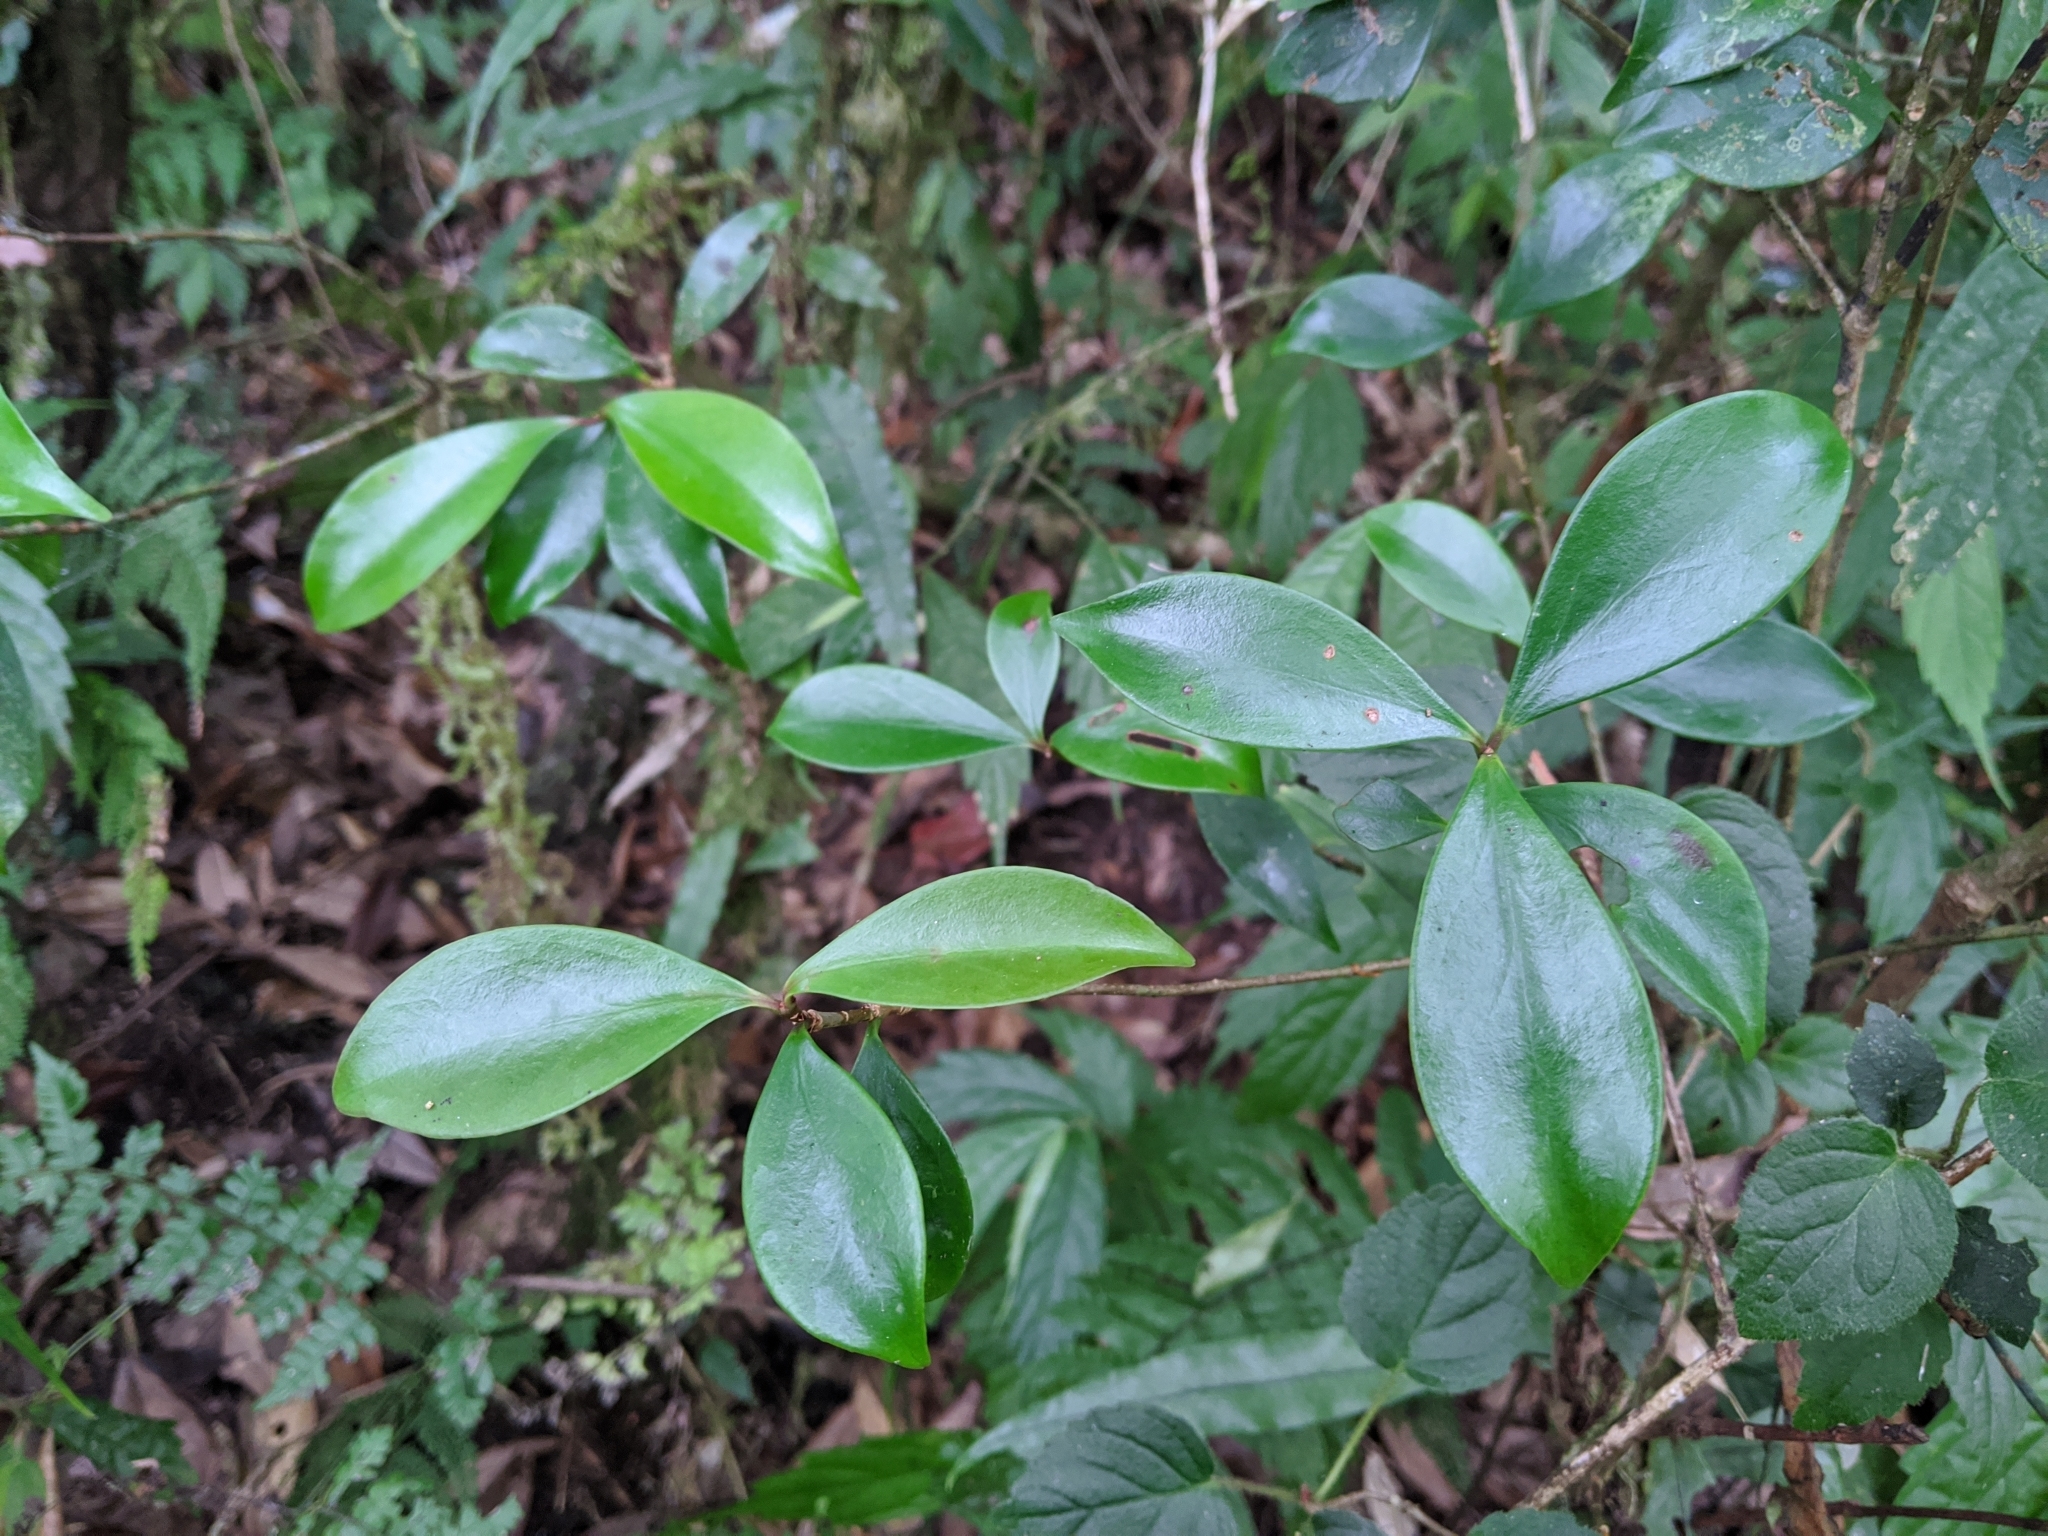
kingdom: Plantae
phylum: Tracheophyta
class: Magnoliopsida
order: Ericales
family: Pentaphylacaceae
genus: Ternstroemia
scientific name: Ternstroemia gymnanthera
